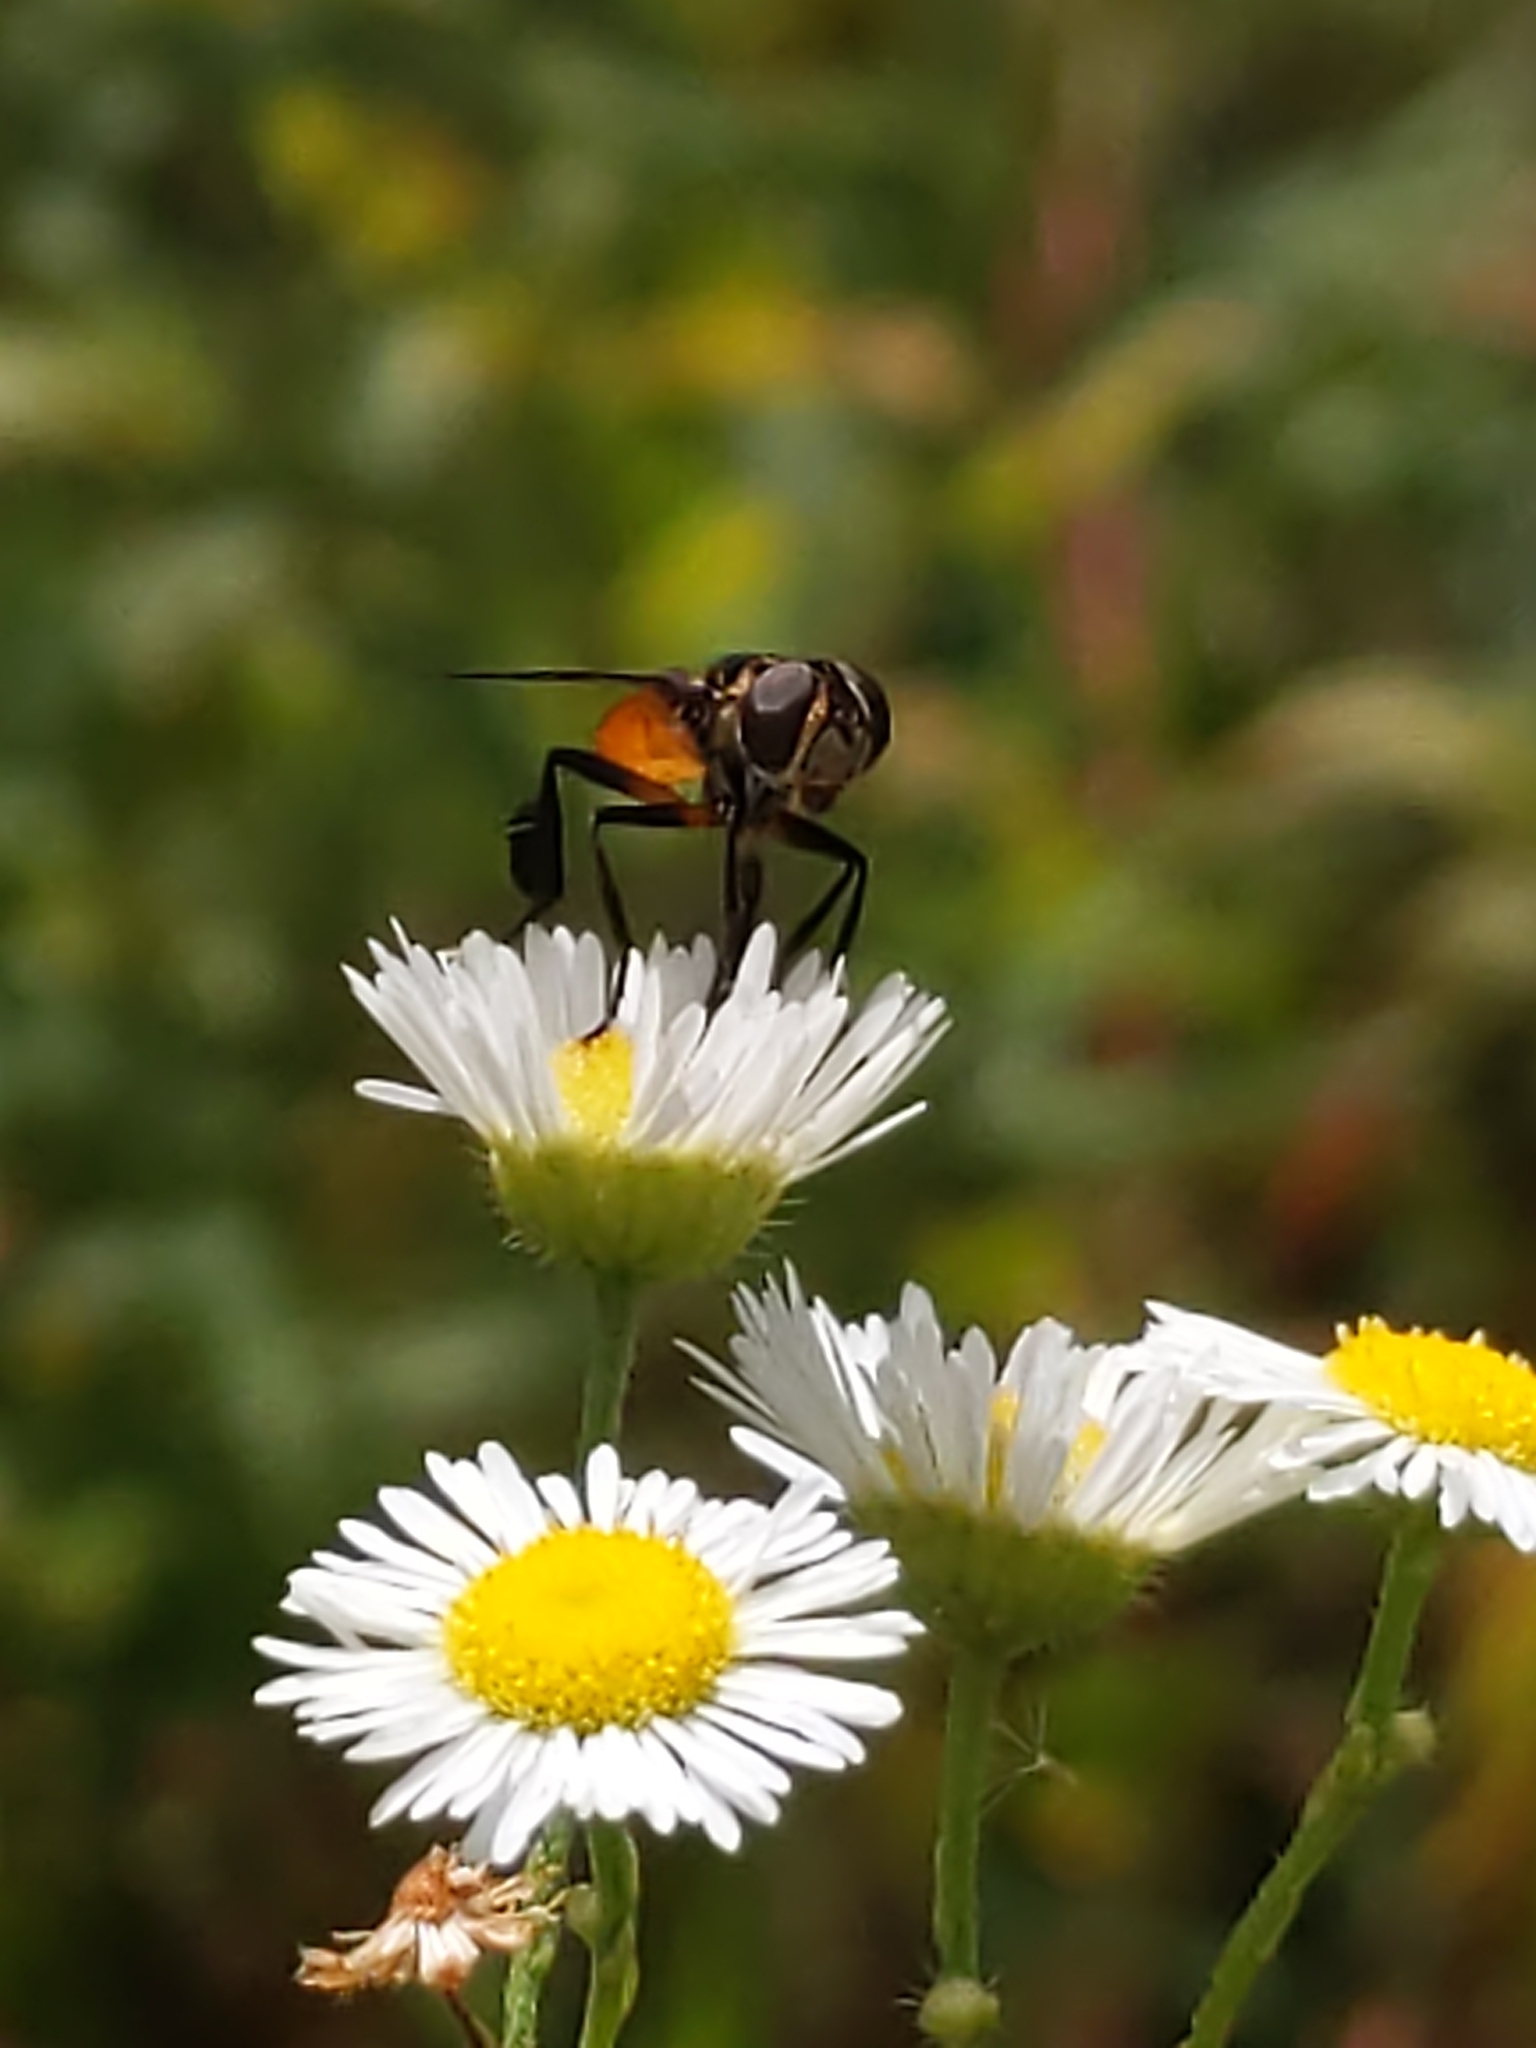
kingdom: Animalia
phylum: Arthropoda
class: Insecta
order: Diptera
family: Tachinidae
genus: Trichopoda
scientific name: Trichopoda pennipes
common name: Tachinid fly
